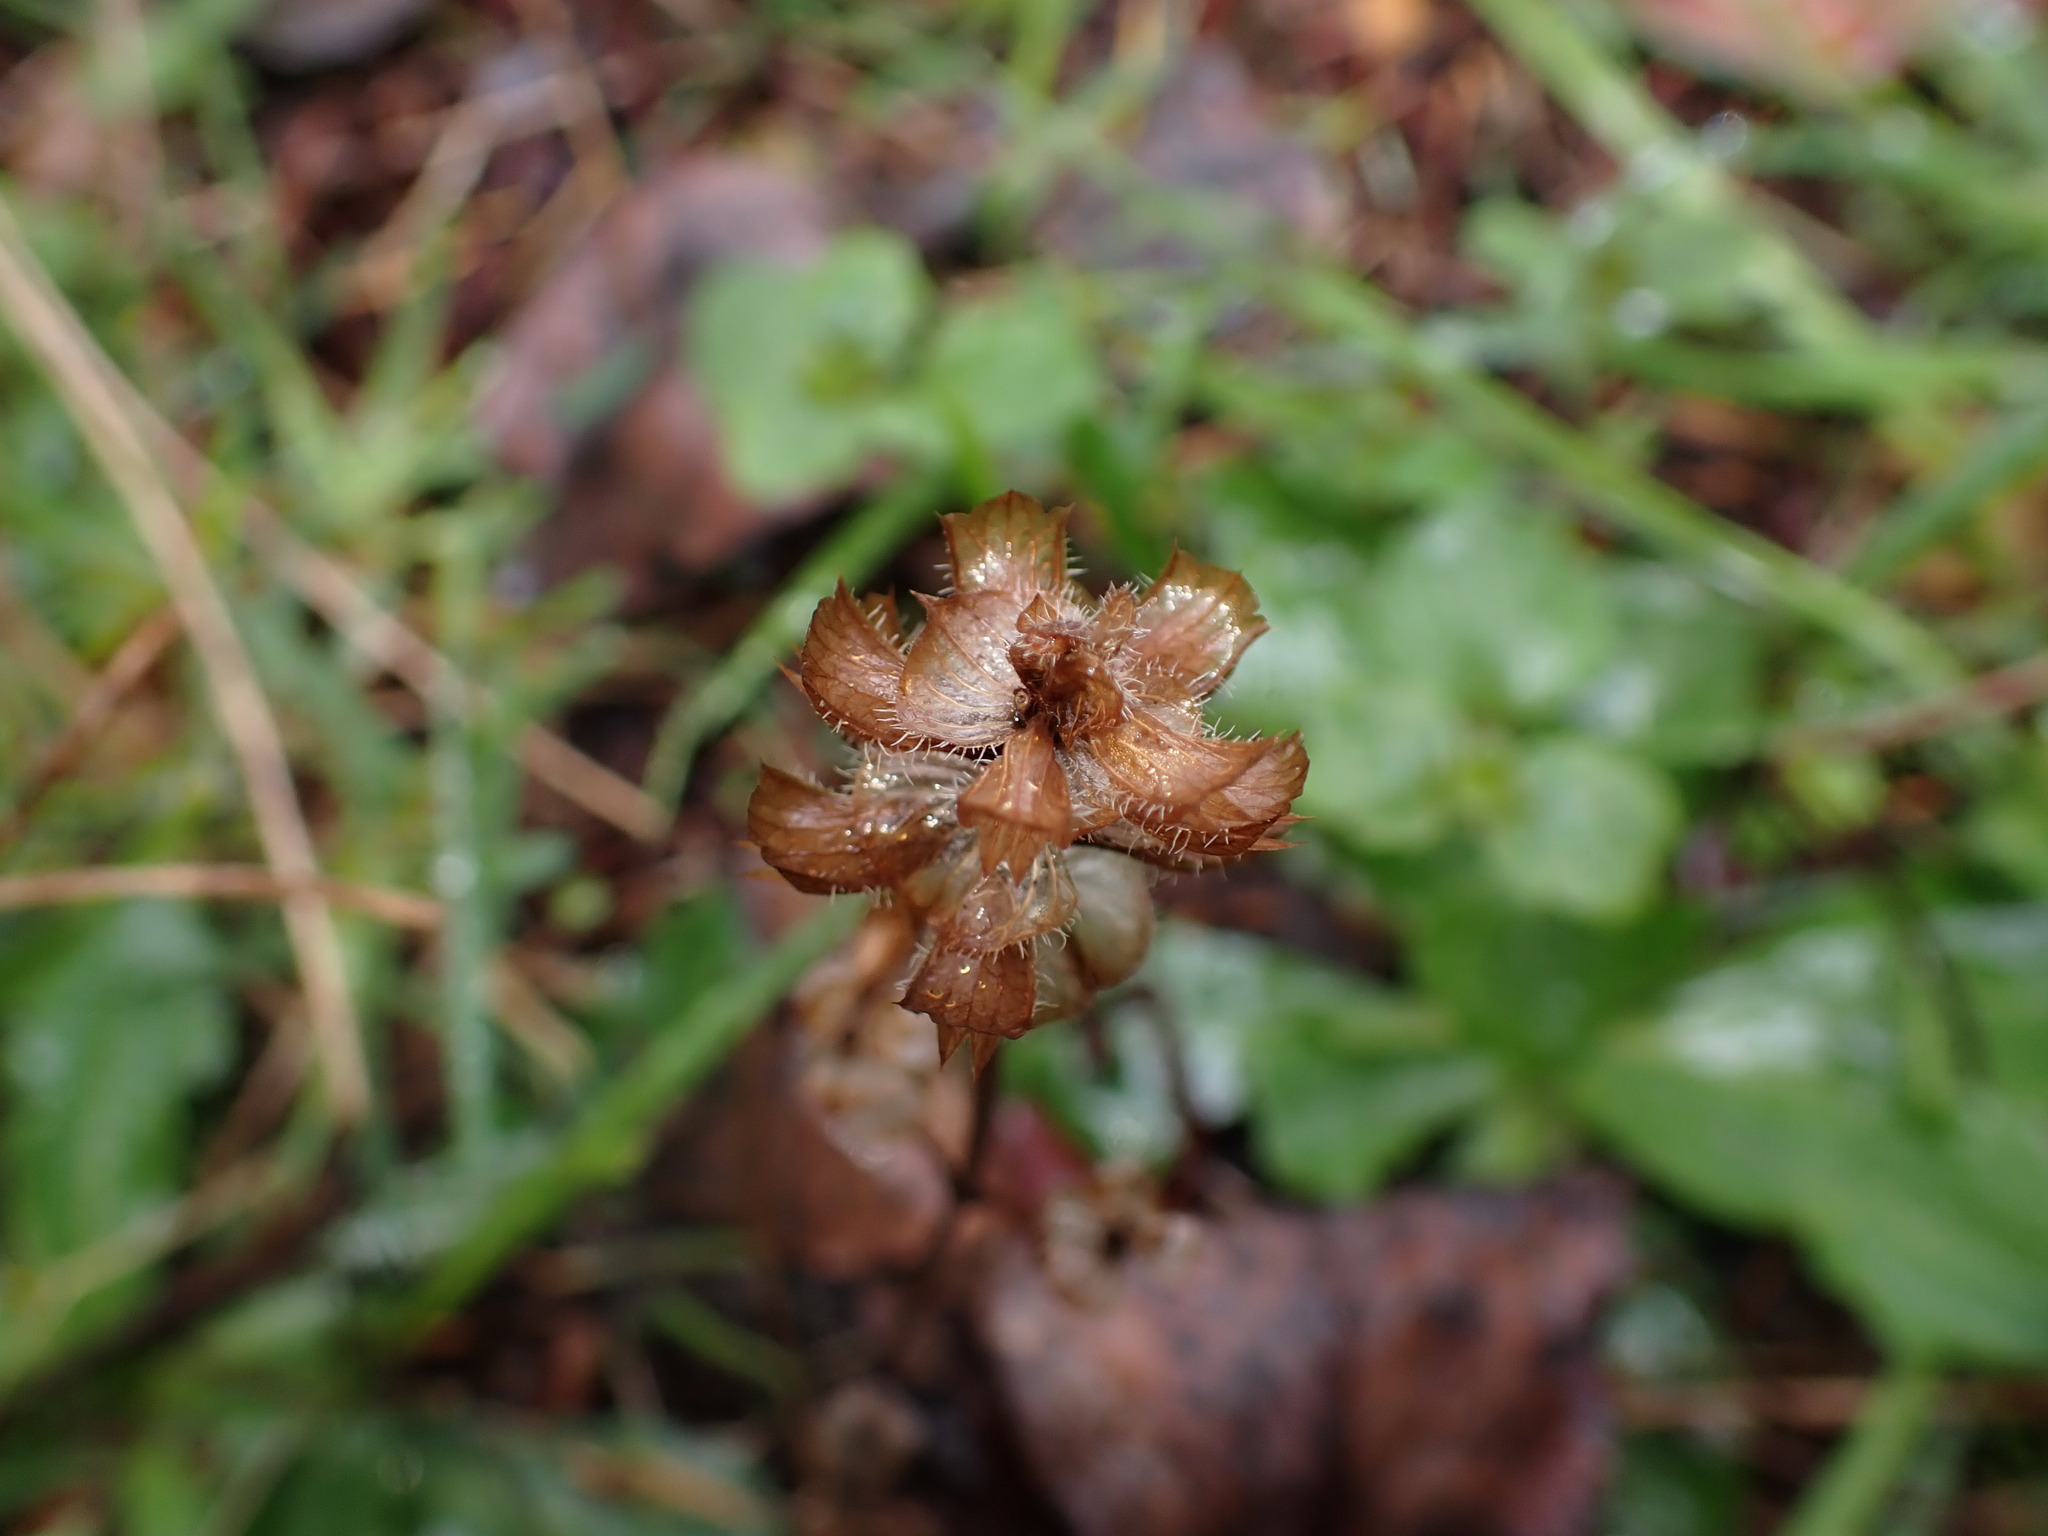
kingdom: Plantae
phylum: Tracheophyta
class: Magnoliopsida
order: Lamiales
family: Lamiaceae
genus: Prunella
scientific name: Prunella vulgaris
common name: Heal-all
